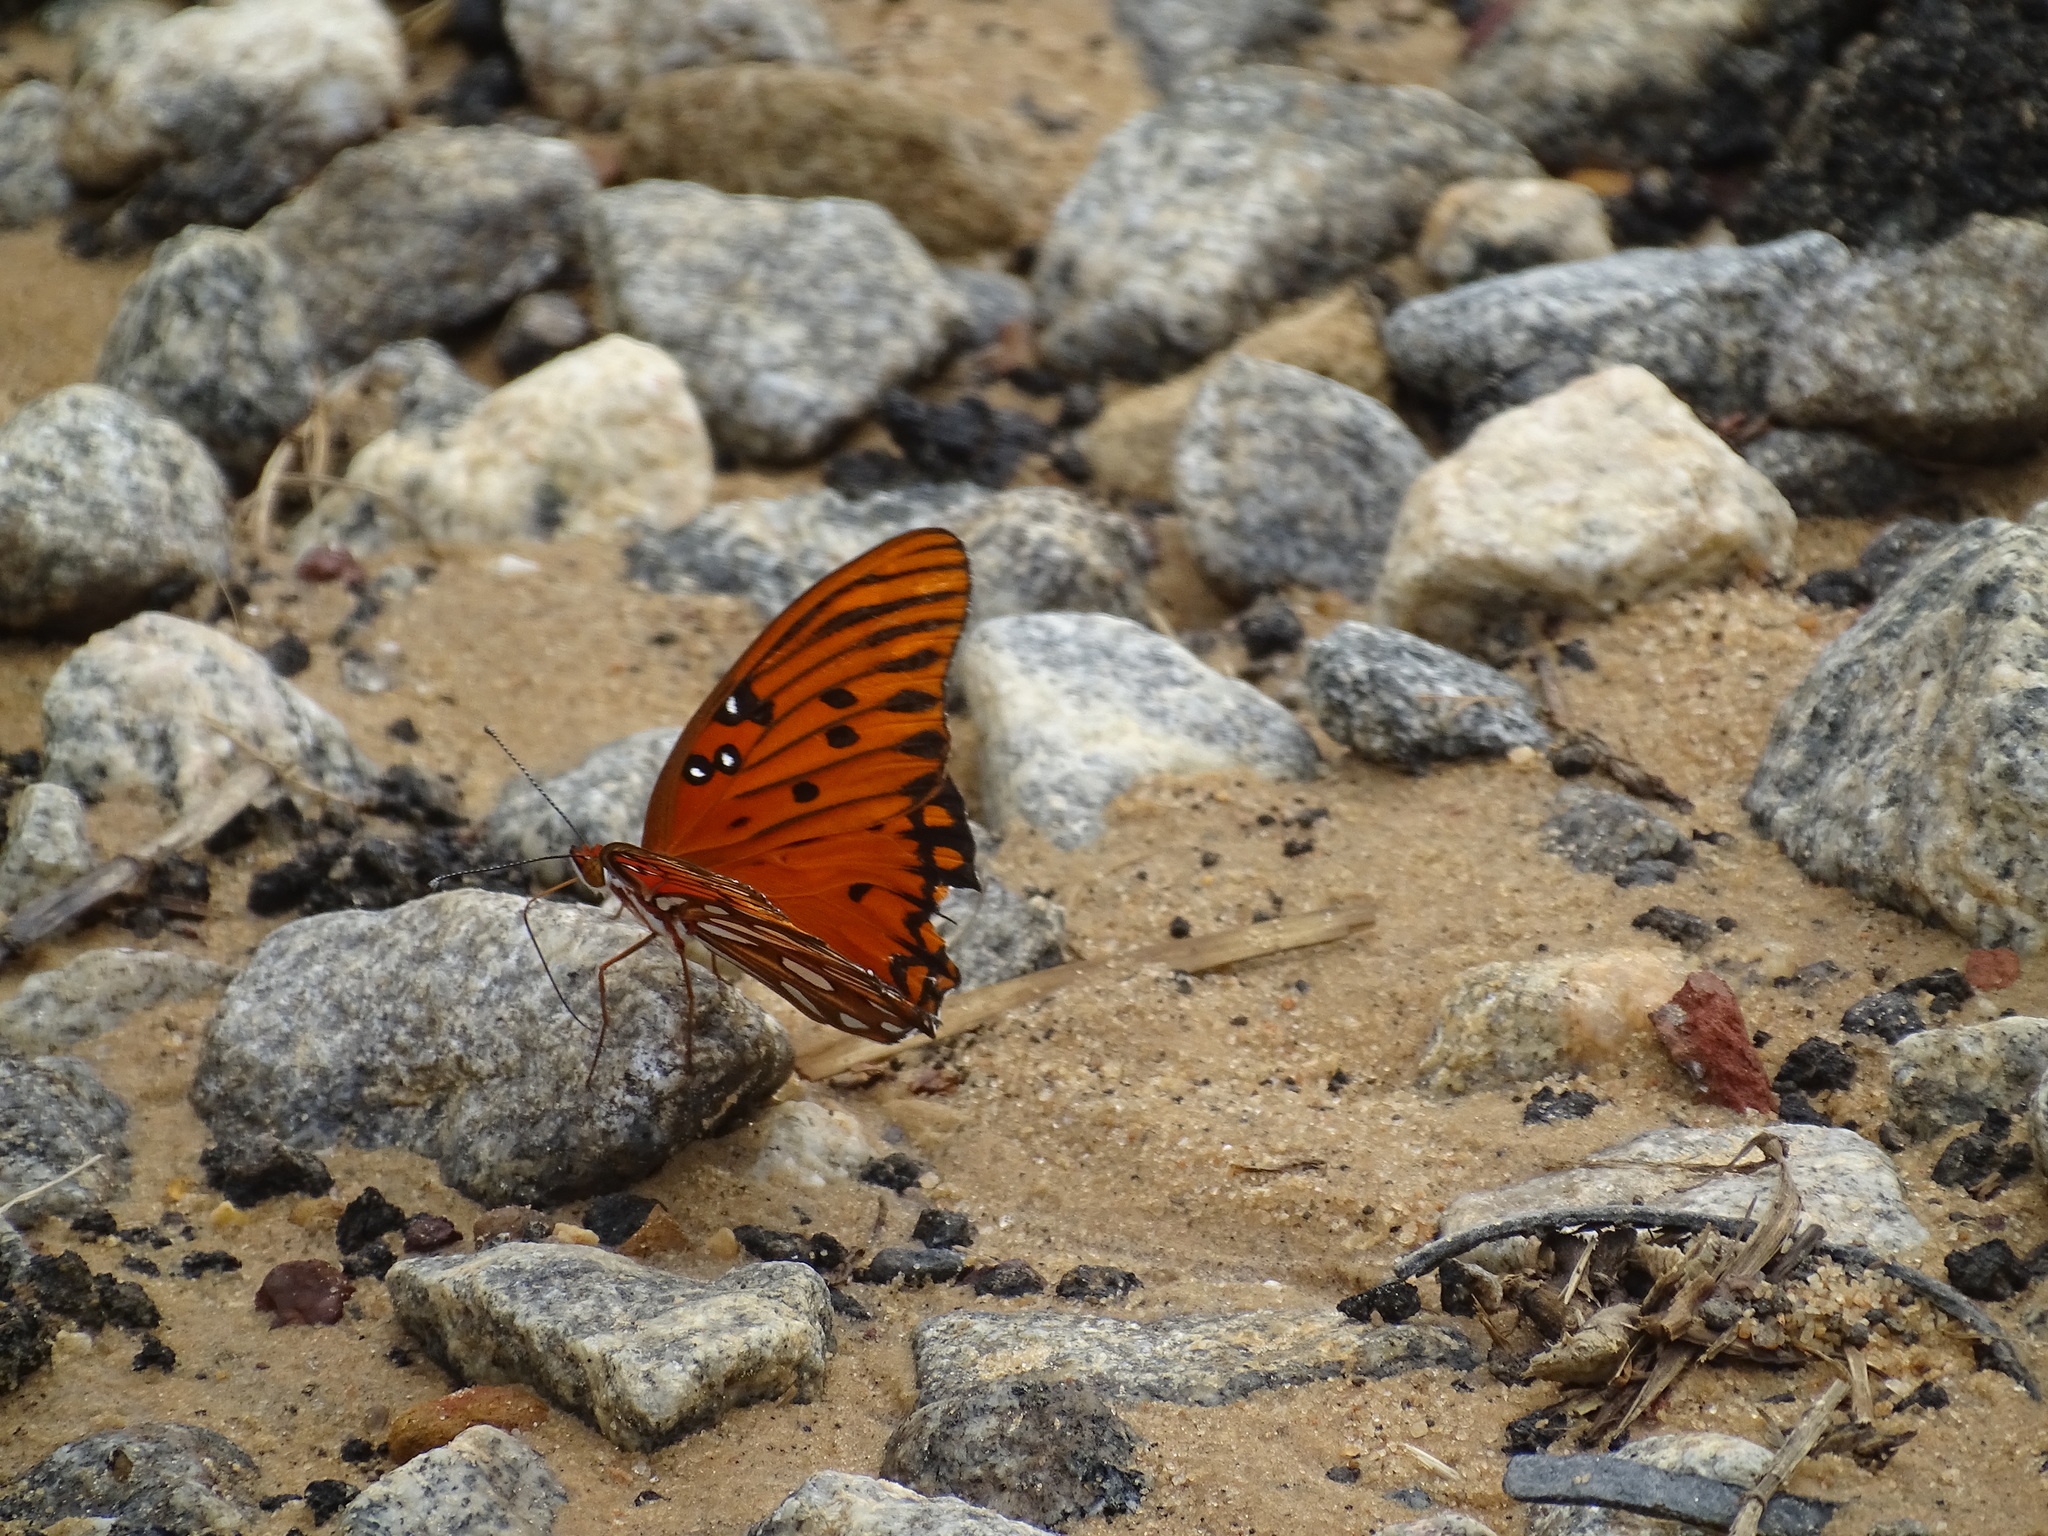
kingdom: Animalia
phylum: Arthropoda
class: Insecta
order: Lepidoptera
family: Nymphalidae
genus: Dione
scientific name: Dione vanillae
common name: Gulf fritillary
